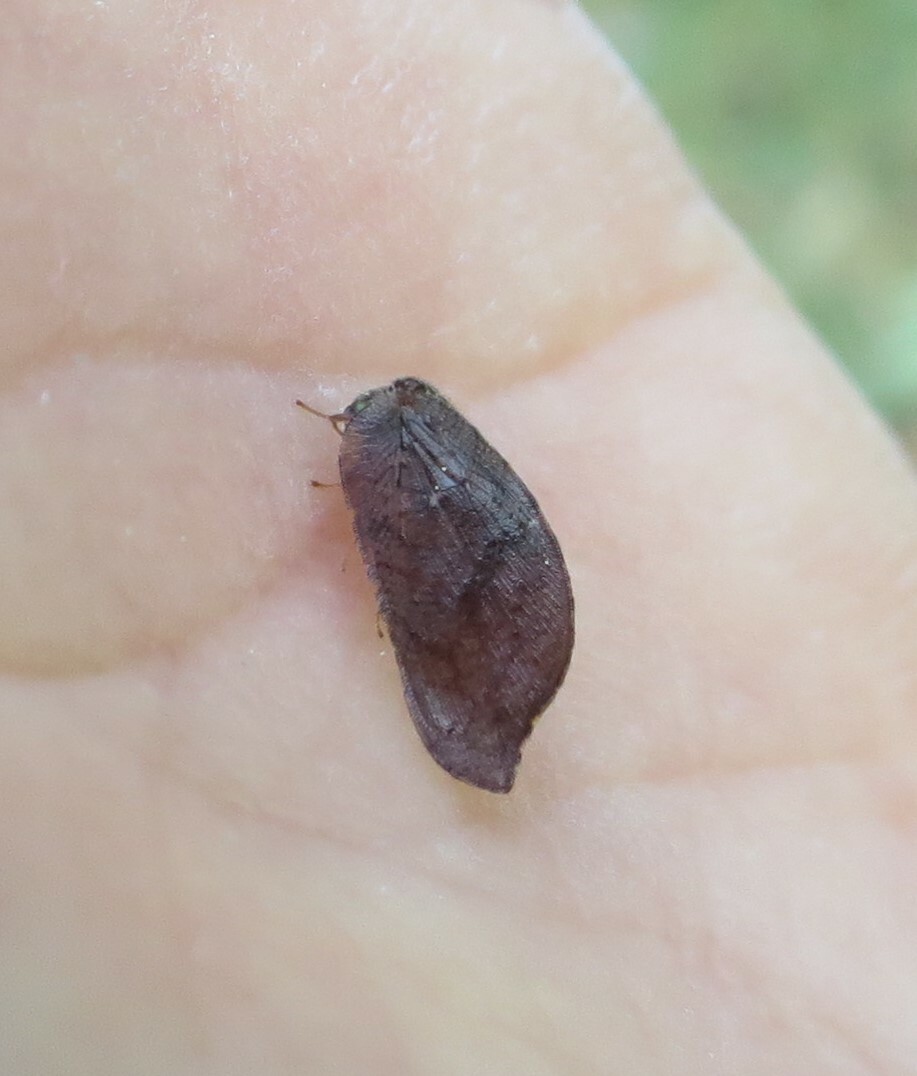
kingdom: Animalia
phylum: Arthropoda
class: Insecta
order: Neuroptera
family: Hemerobiidae
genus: Drepanacra
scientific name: Drepanacra binocula
